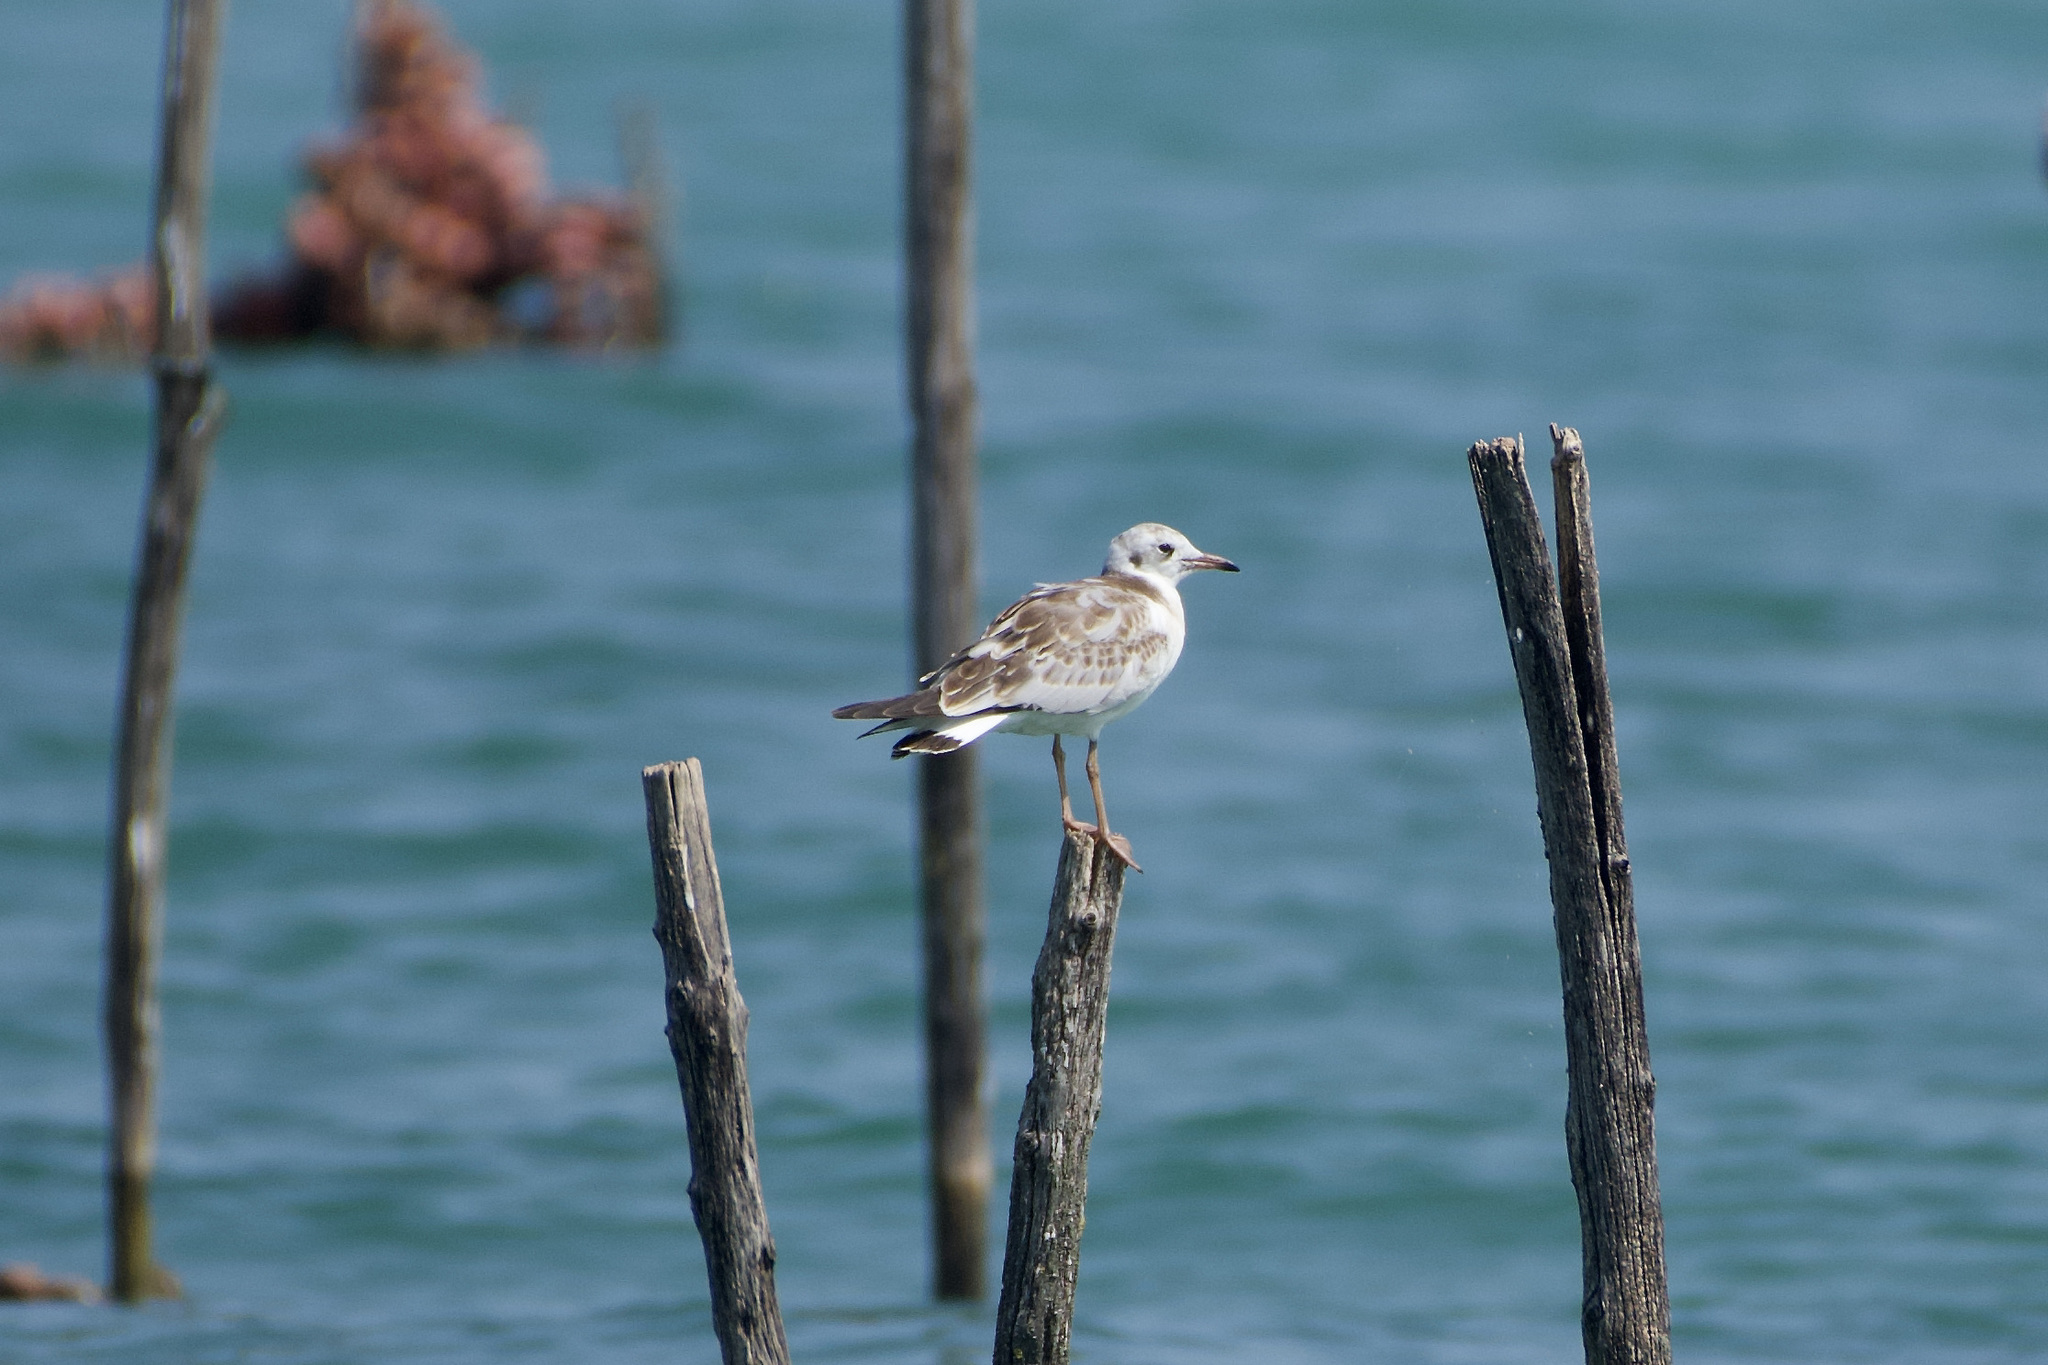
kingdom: Animalia
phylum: Chordata
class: Aves
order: Charadriiformes
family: Laridae
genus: Chroicocephalus
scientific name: Chroicocephalus ridibundus
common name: Black-headed gull
